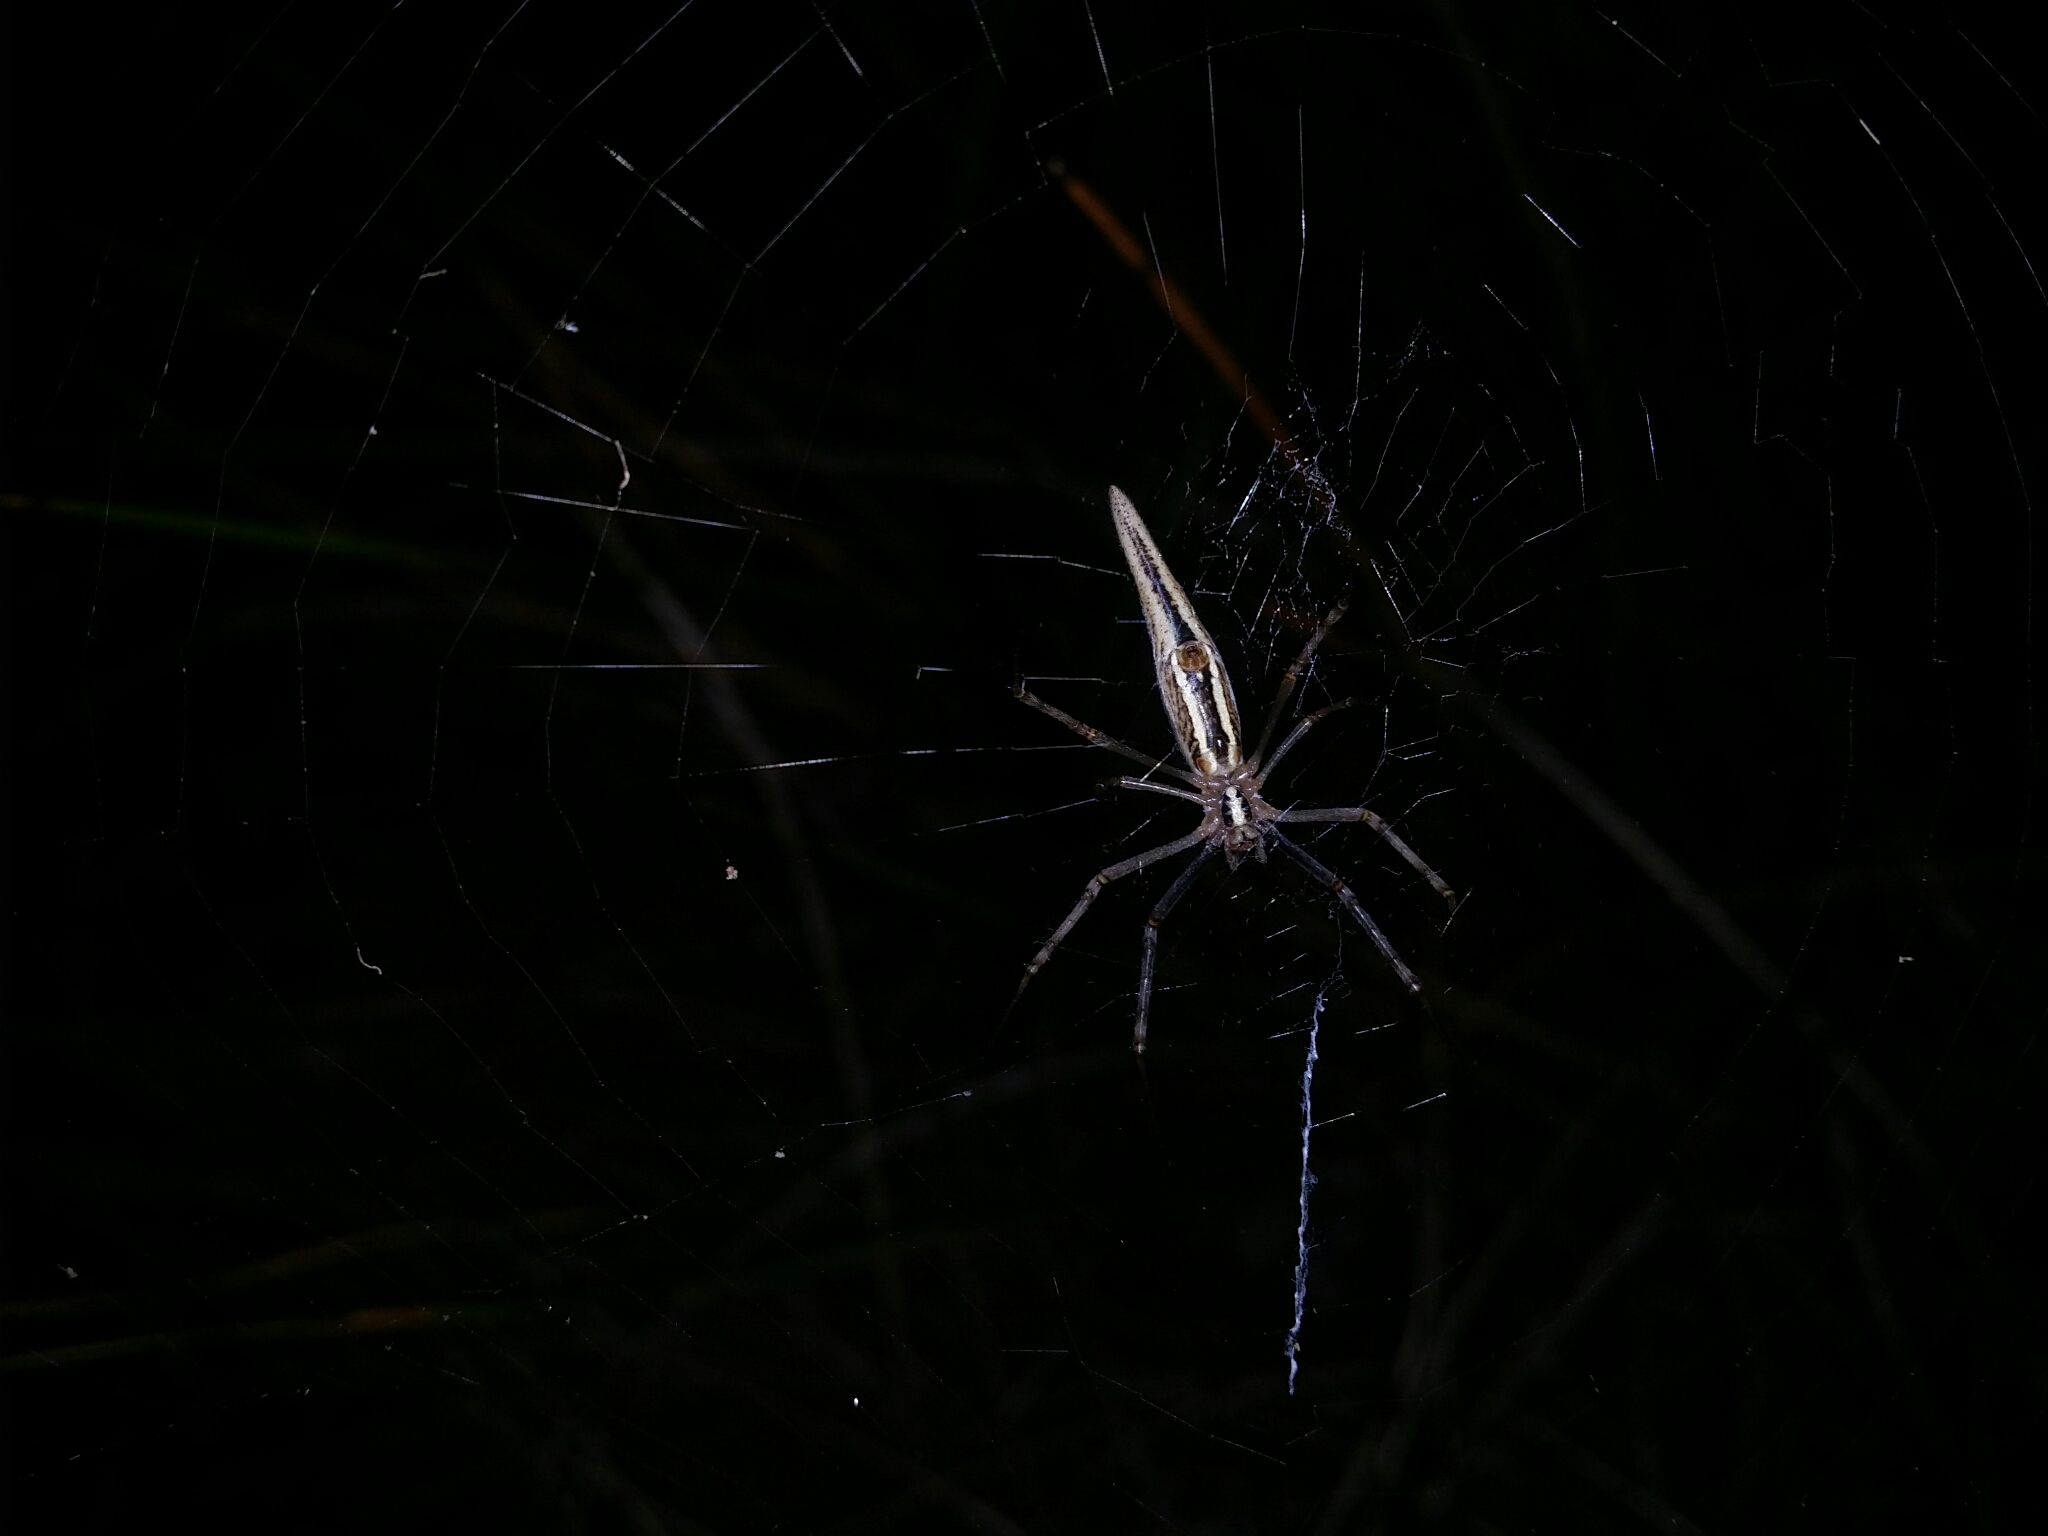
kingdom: Animalia
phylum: Arthropoda
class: Arachnida
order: Araneae
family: Araneidae
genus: Argiope
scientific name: Argiope protensa
